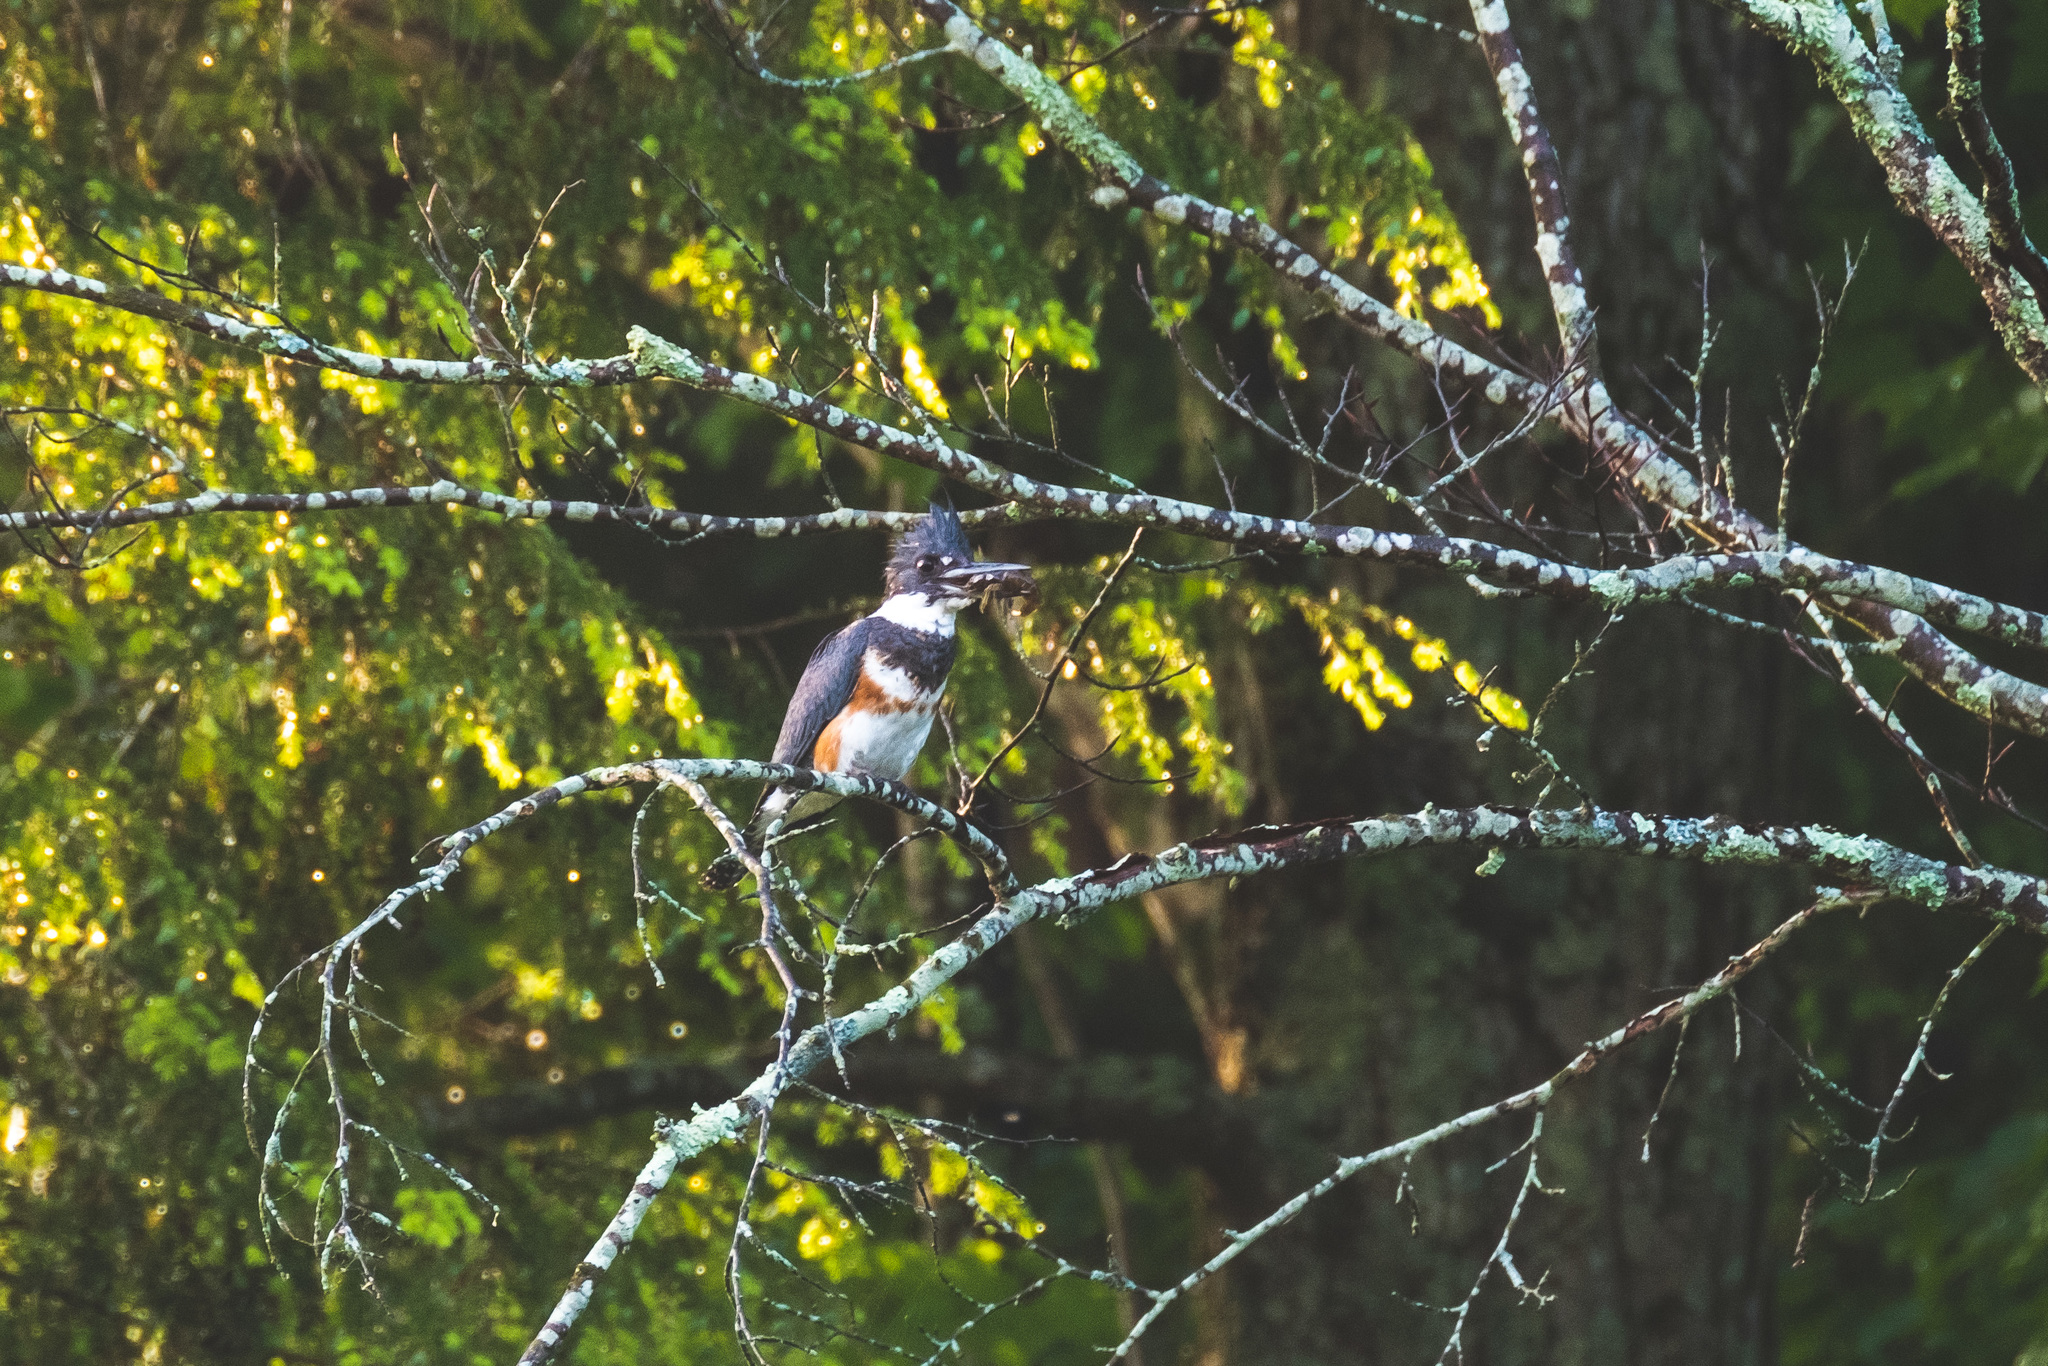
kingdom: Animalia
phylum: Chordata
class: Aves
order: Coraciiformes
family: Alcedinidae
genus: Megaceryle
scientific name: Megaceryle alcyon
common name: Belted kingfisher
